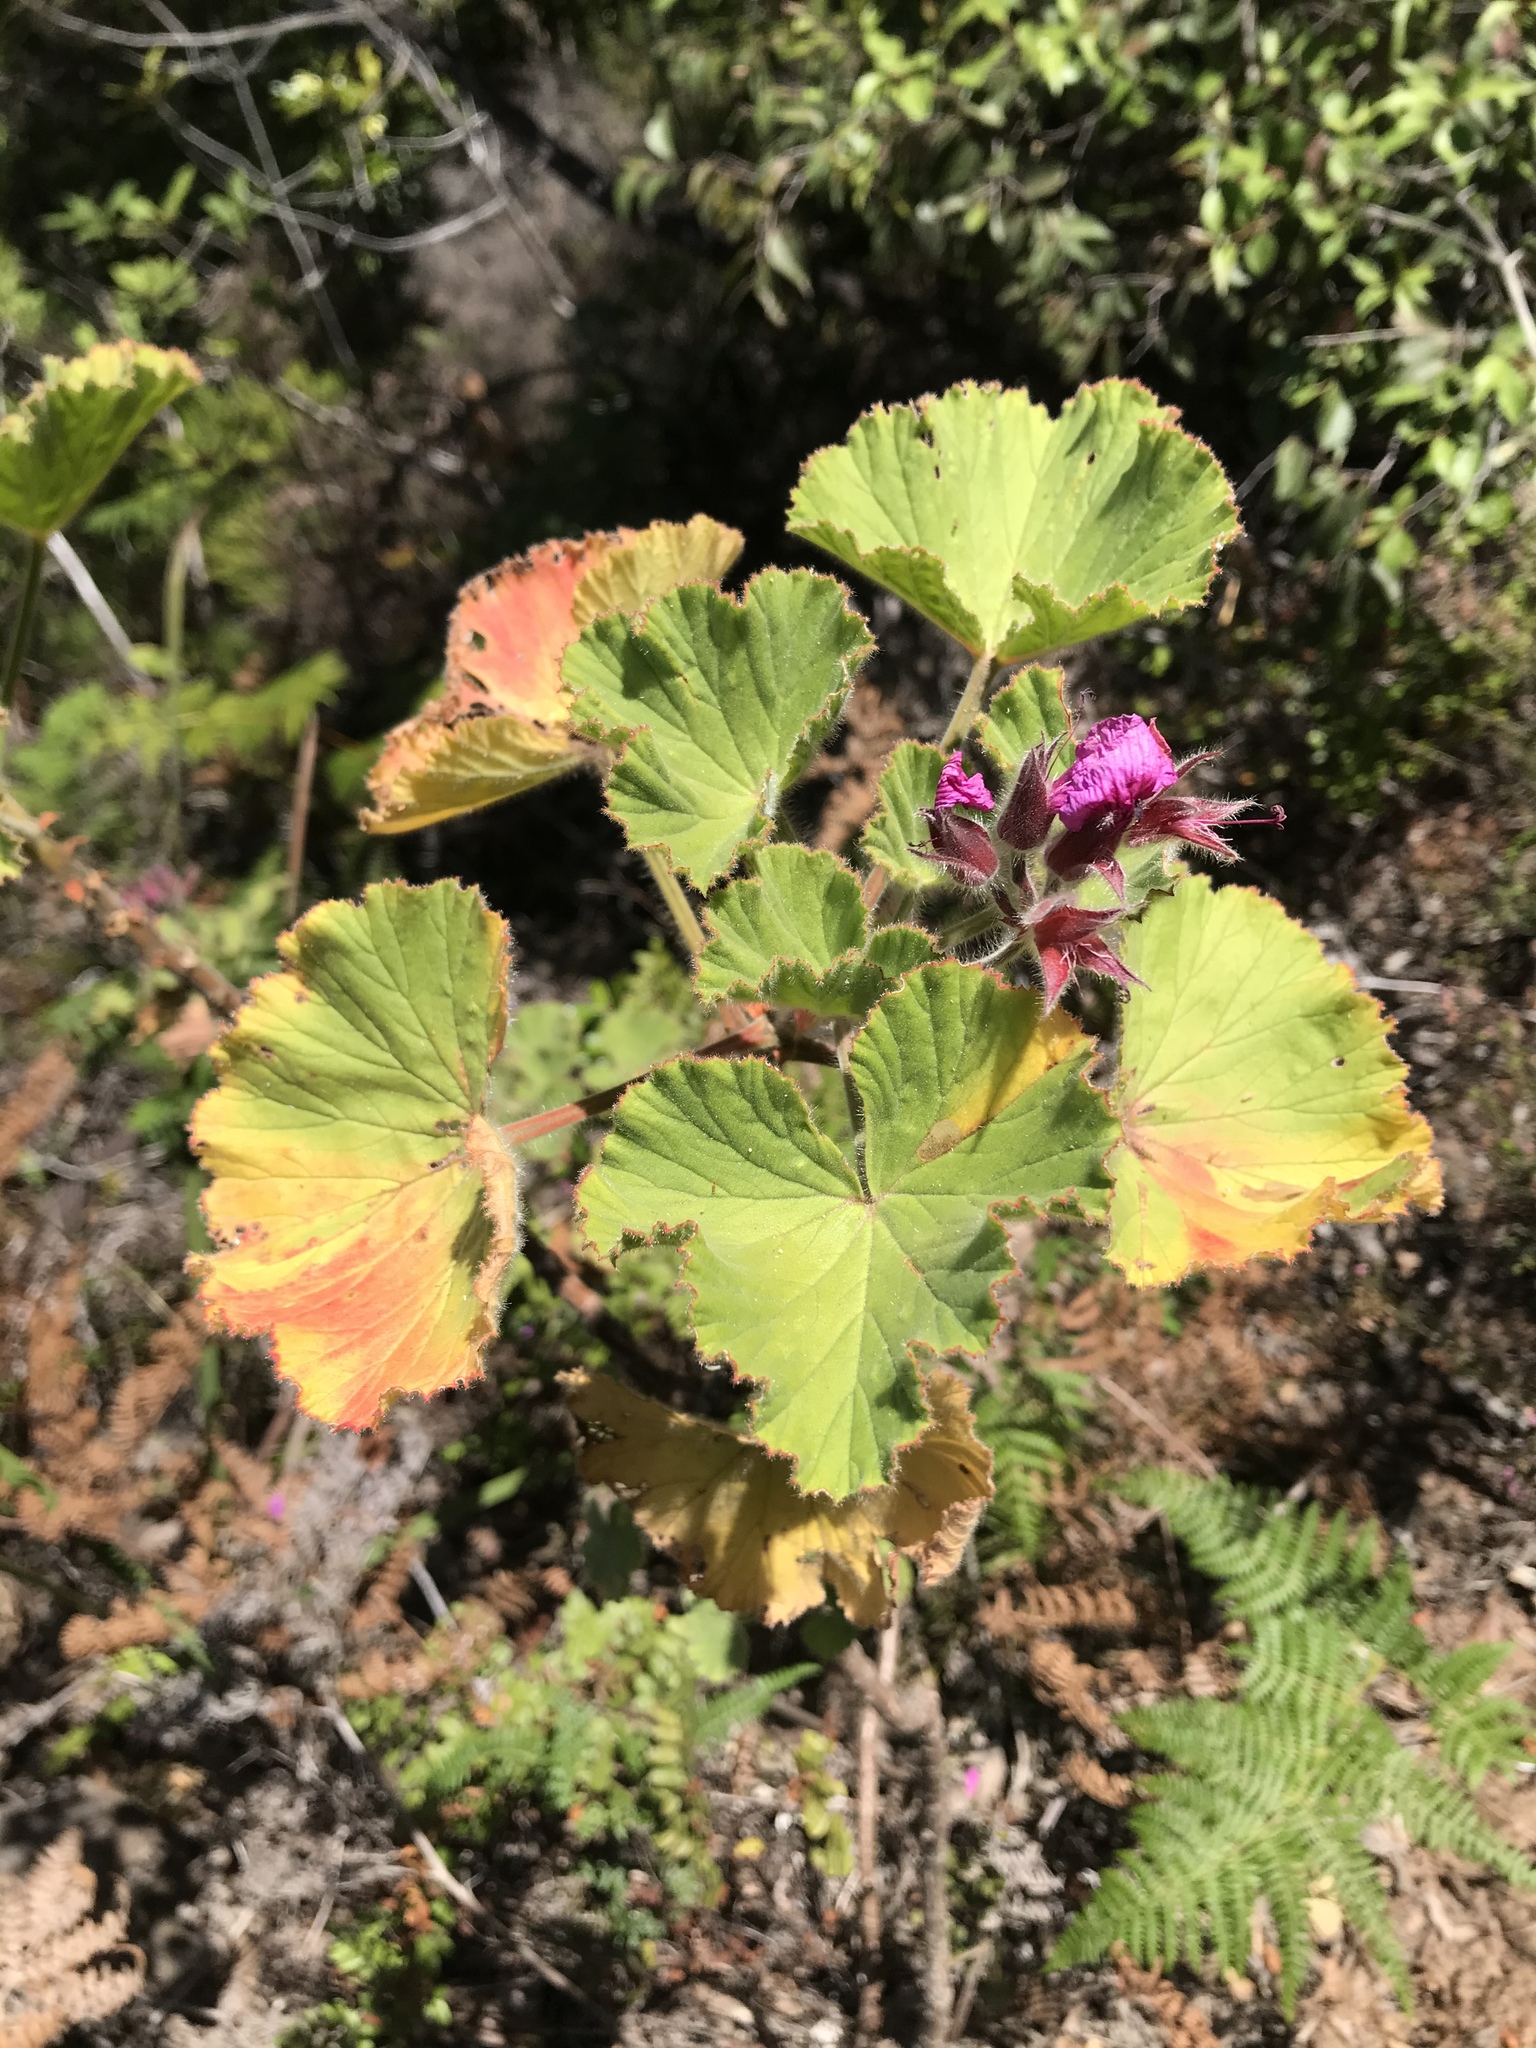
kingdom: Plantae
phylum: Tracheophyta
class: Magnoliopsida
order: Geraniales
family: Geraniaceae
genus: Pelargonium
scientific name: Pelargonium cucullatum
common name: Tree pelargonium
